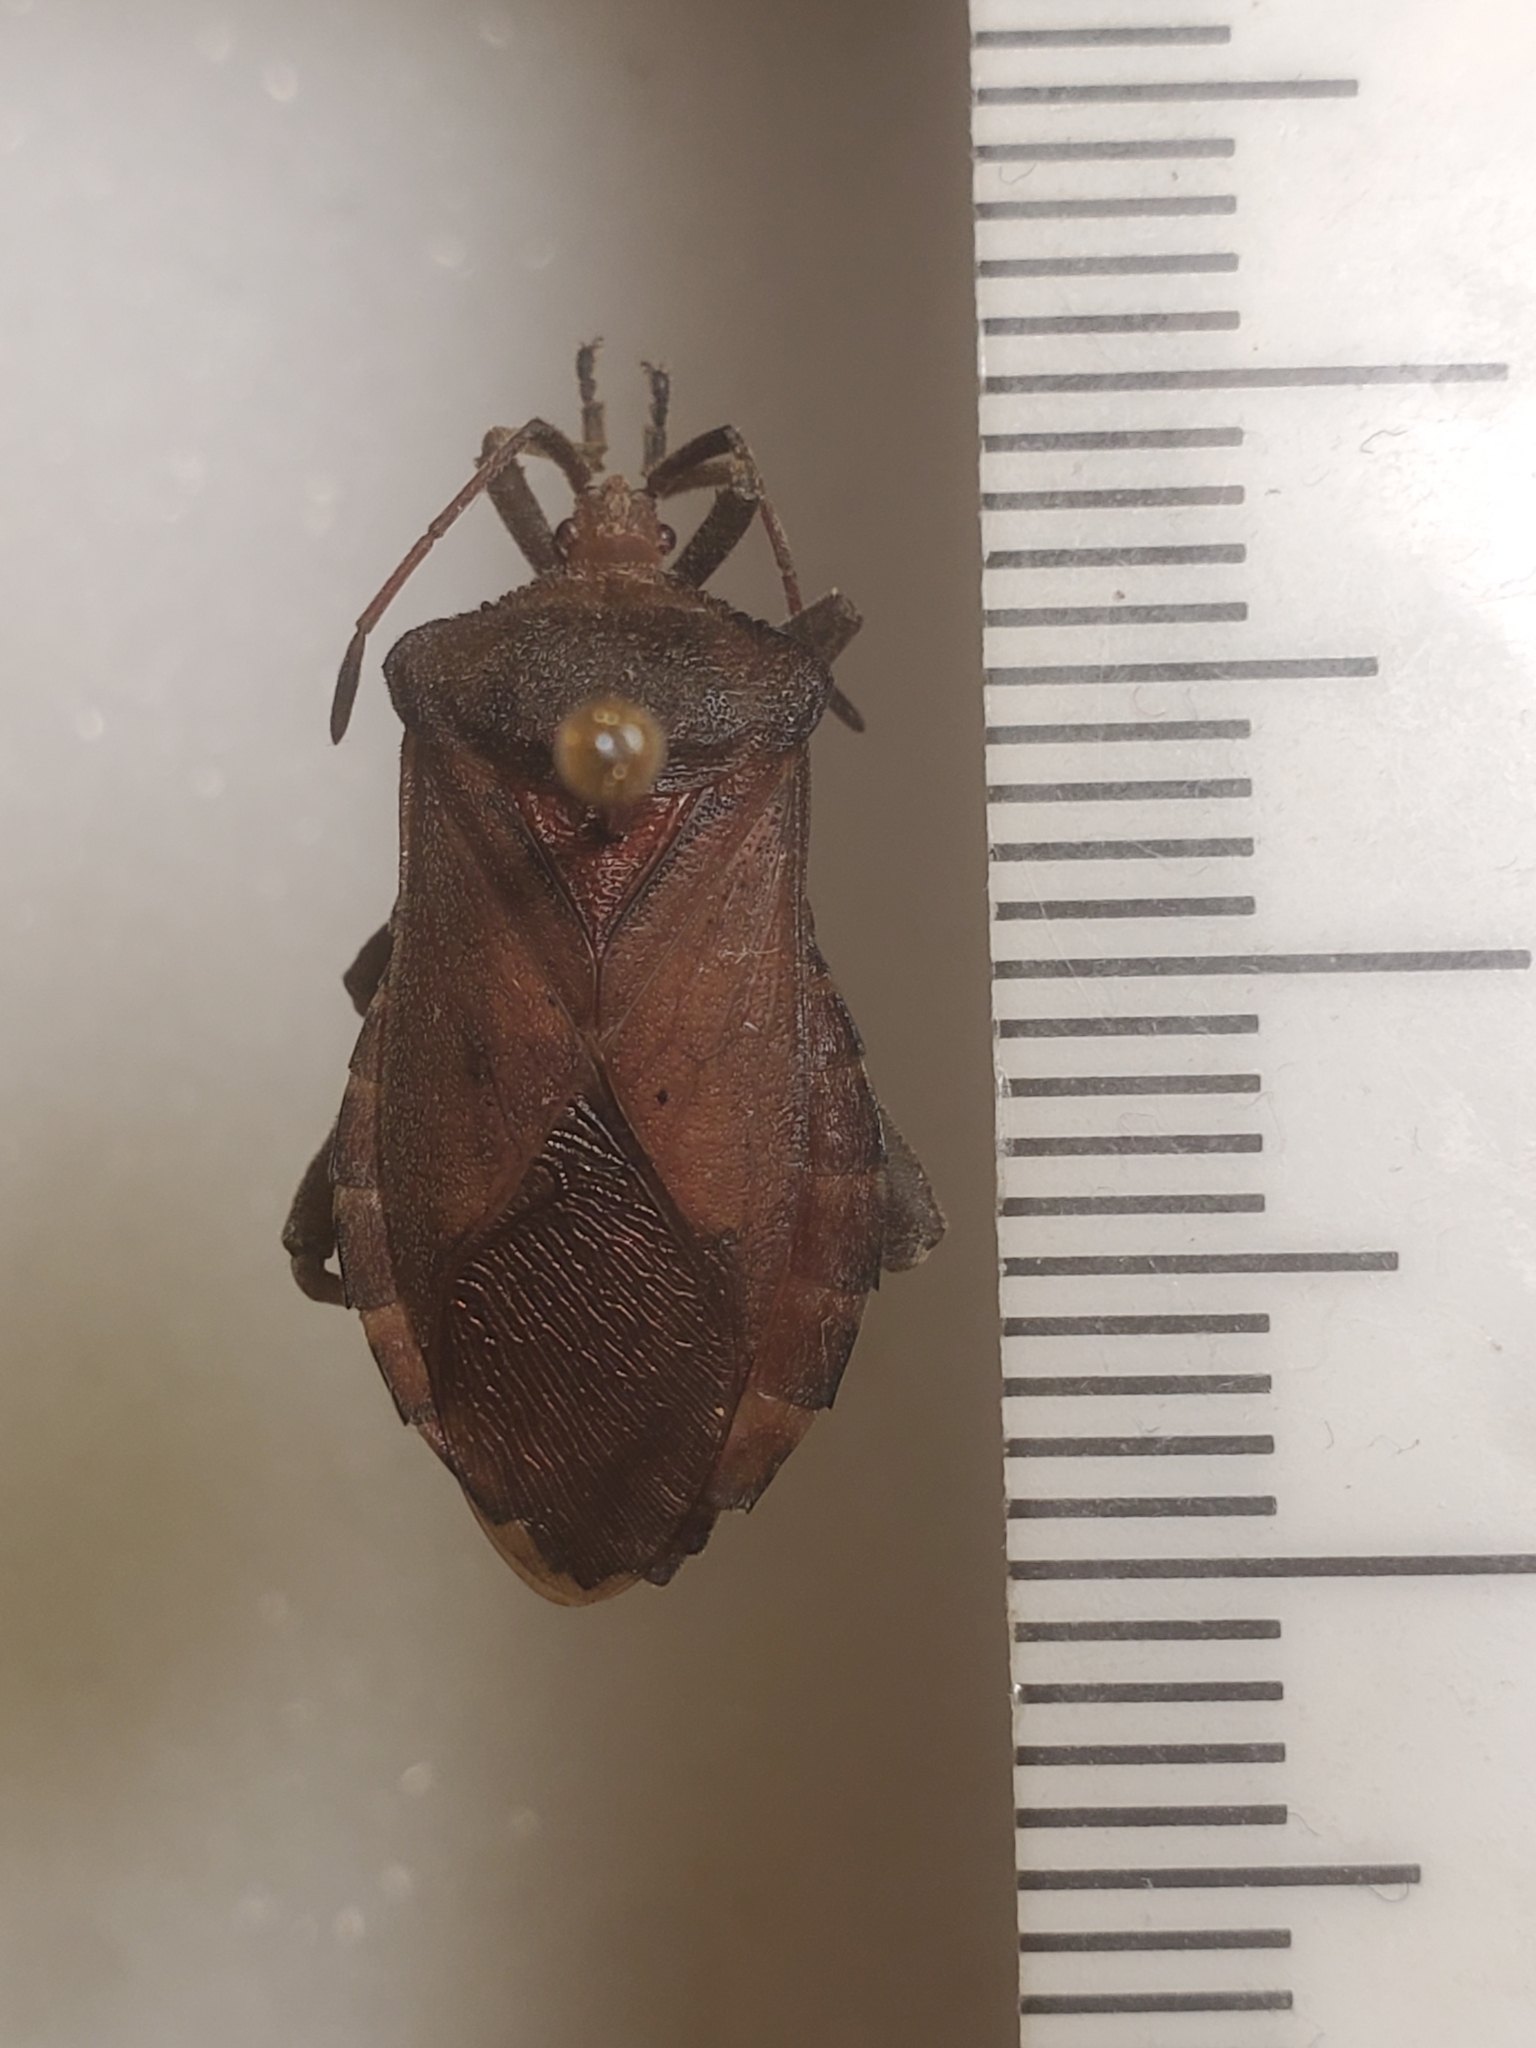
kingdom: Animalia
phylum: Arthropoda
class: Insecta
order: Hemiptera
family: Coreidae
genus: Mozena
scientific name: Mozena obesa
